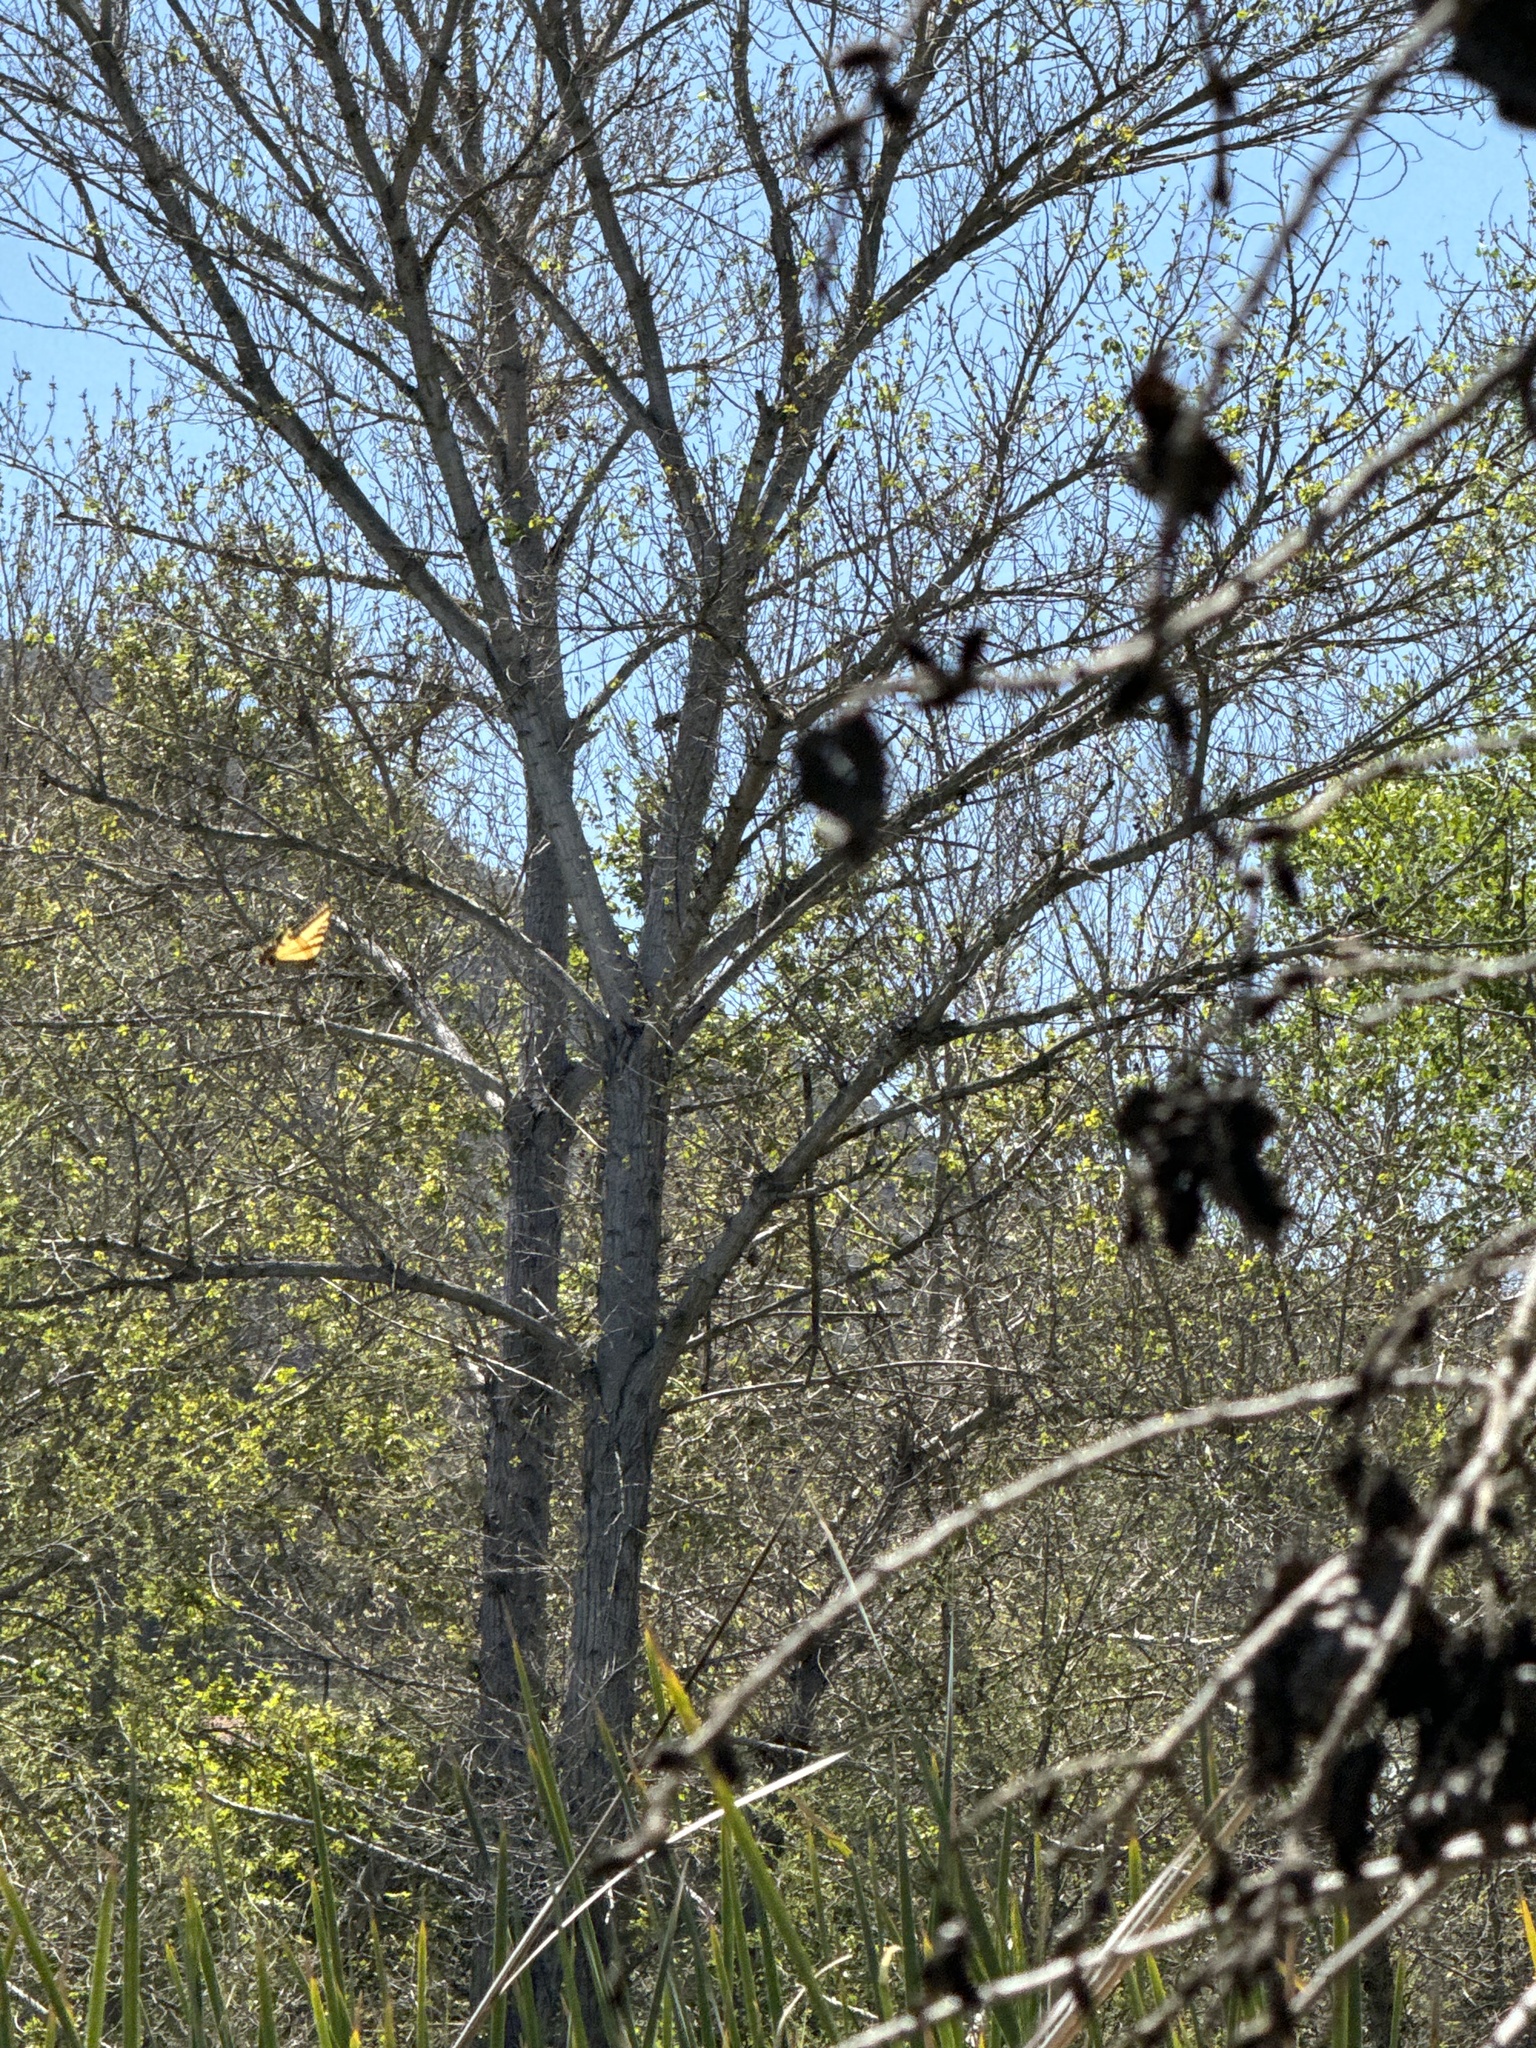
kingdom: Animalia
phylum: Arthropoda
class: Insecta
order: Lepidoptera
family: Papilionidae
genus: Papilio
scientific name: Papilio rutulus
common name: Western tiger swallowtail
